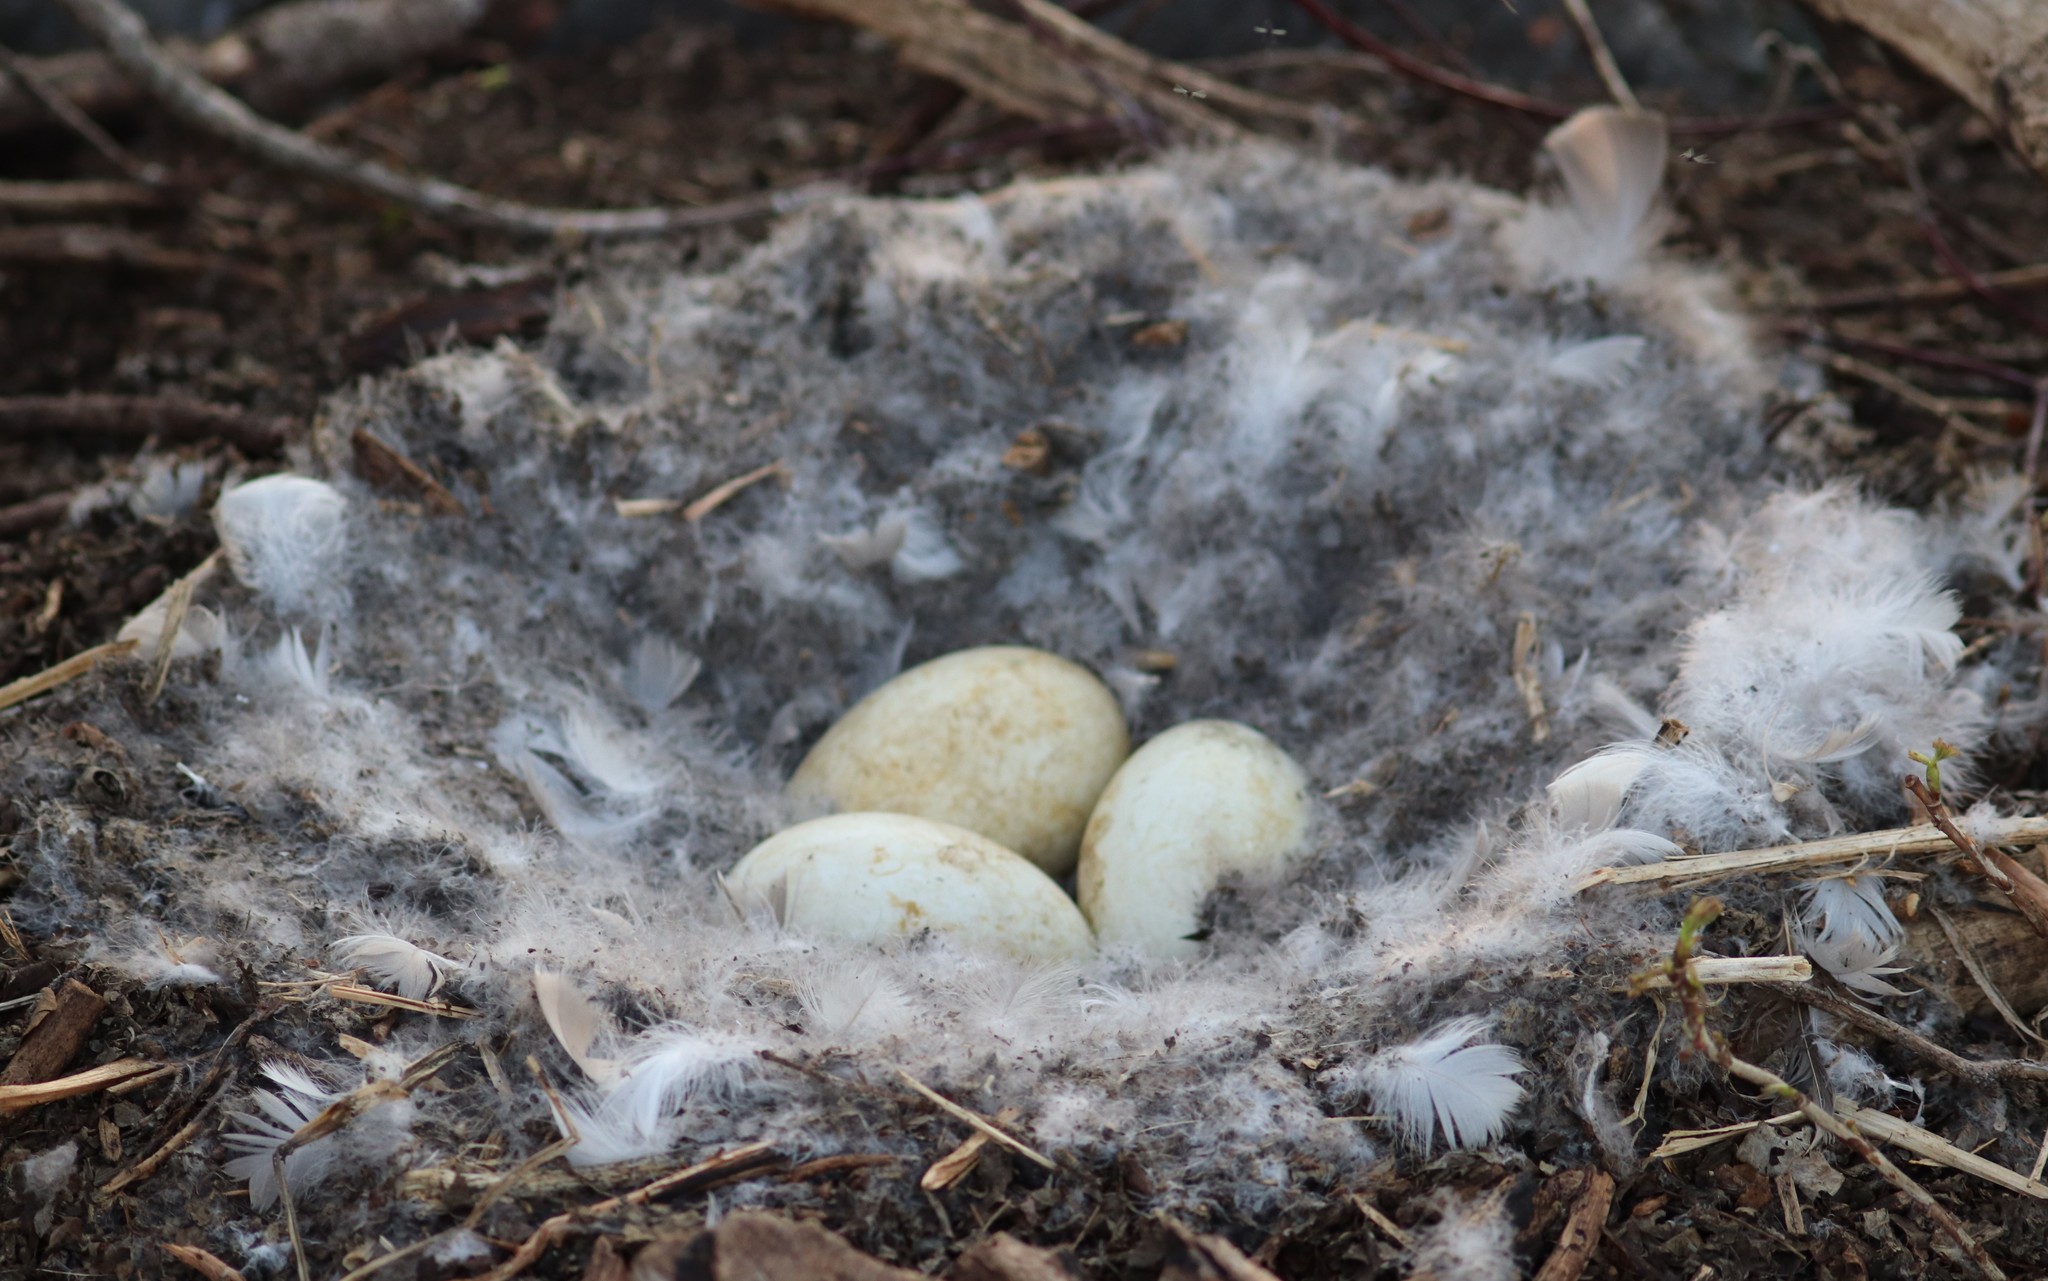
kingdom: Animalia
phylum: Chordata
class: Aves
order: Anseriformes
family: Anatidae
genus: Branta
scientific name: Branta canadensis
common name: Canada goose
